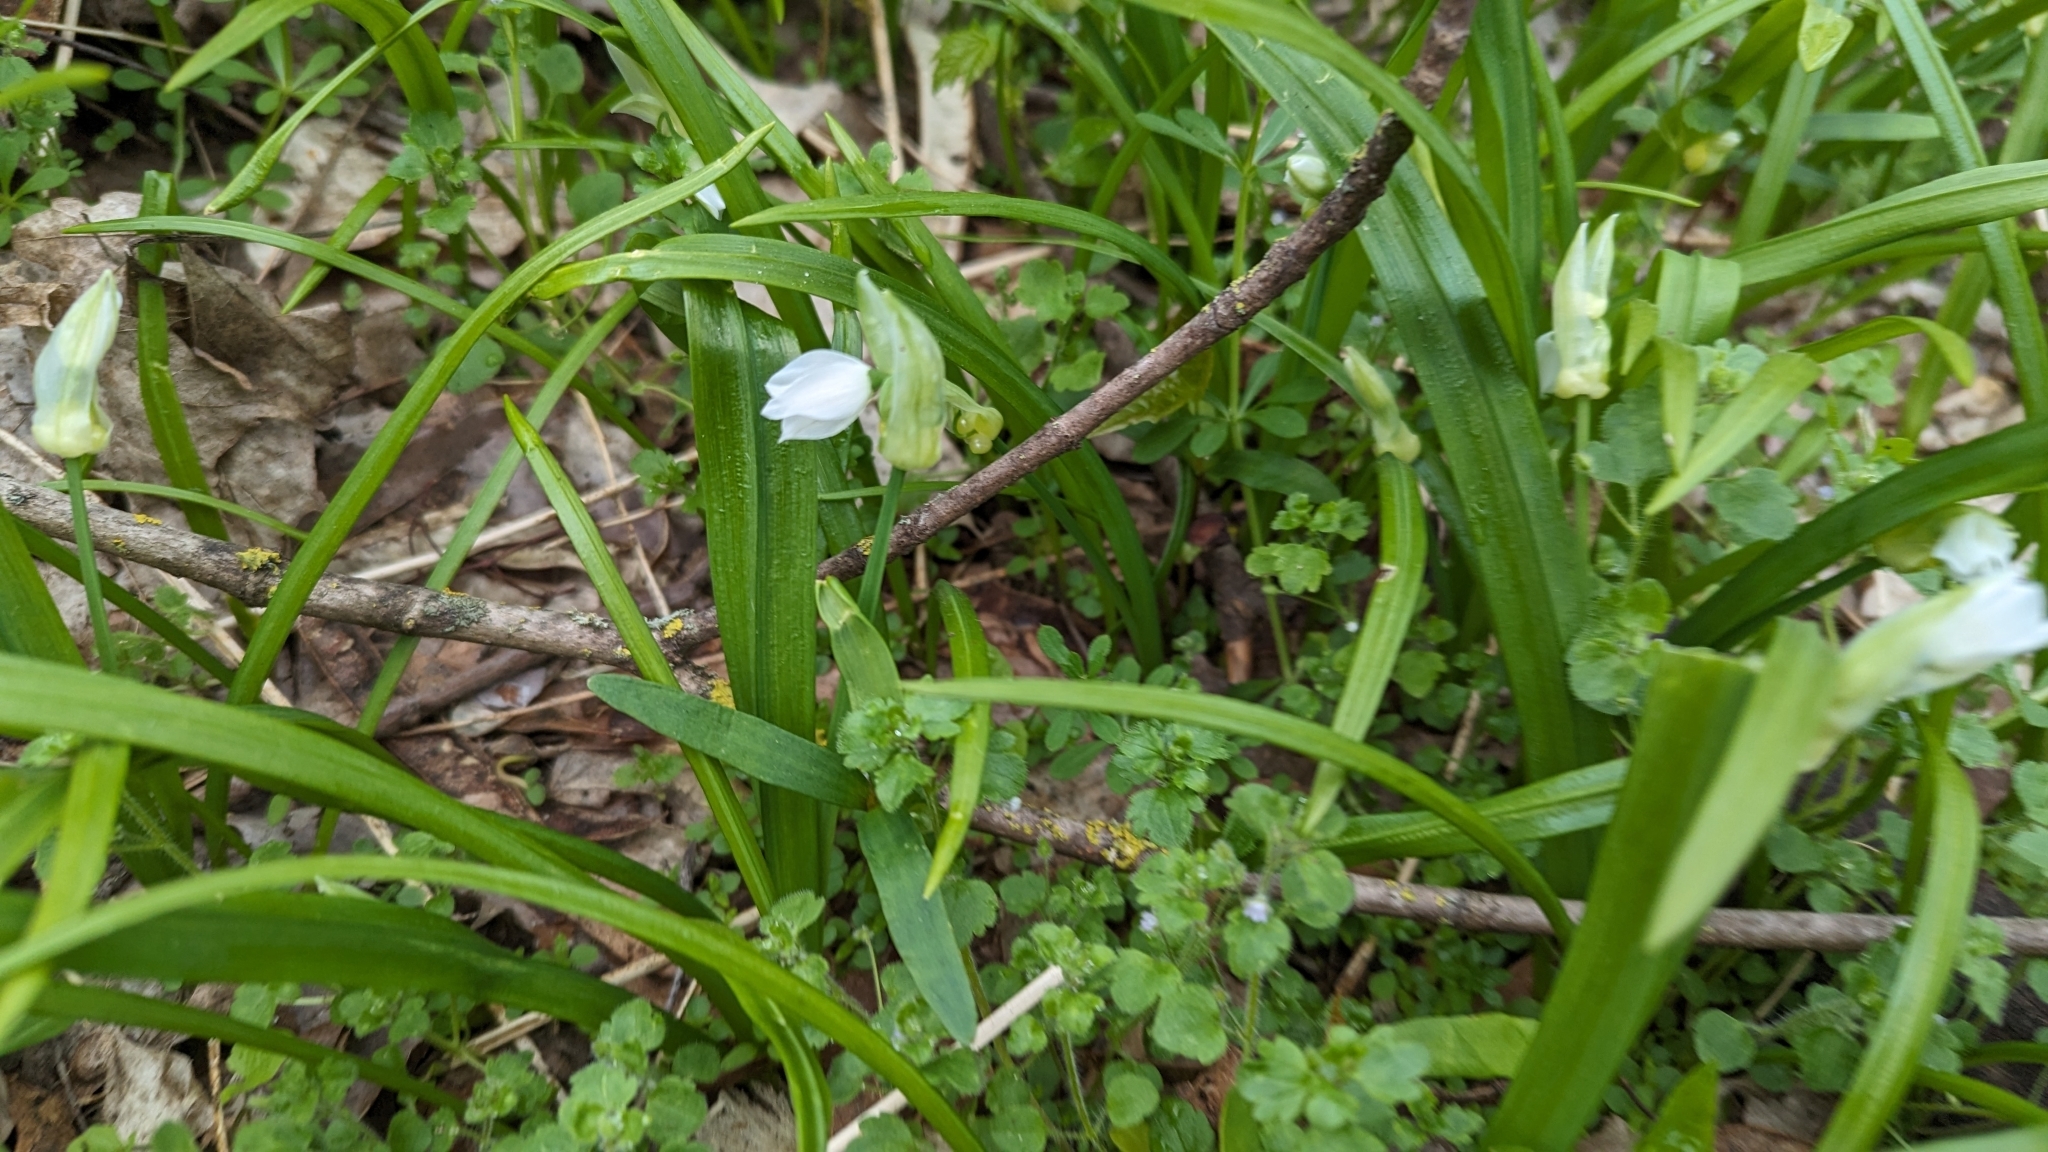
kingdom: Plantae
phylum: Tracheophyta
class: Liliopsida
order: Asparagales
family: Amaryllidaceae
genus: Allium
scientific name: Allium paradoxum
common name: Few-flowered garlic
